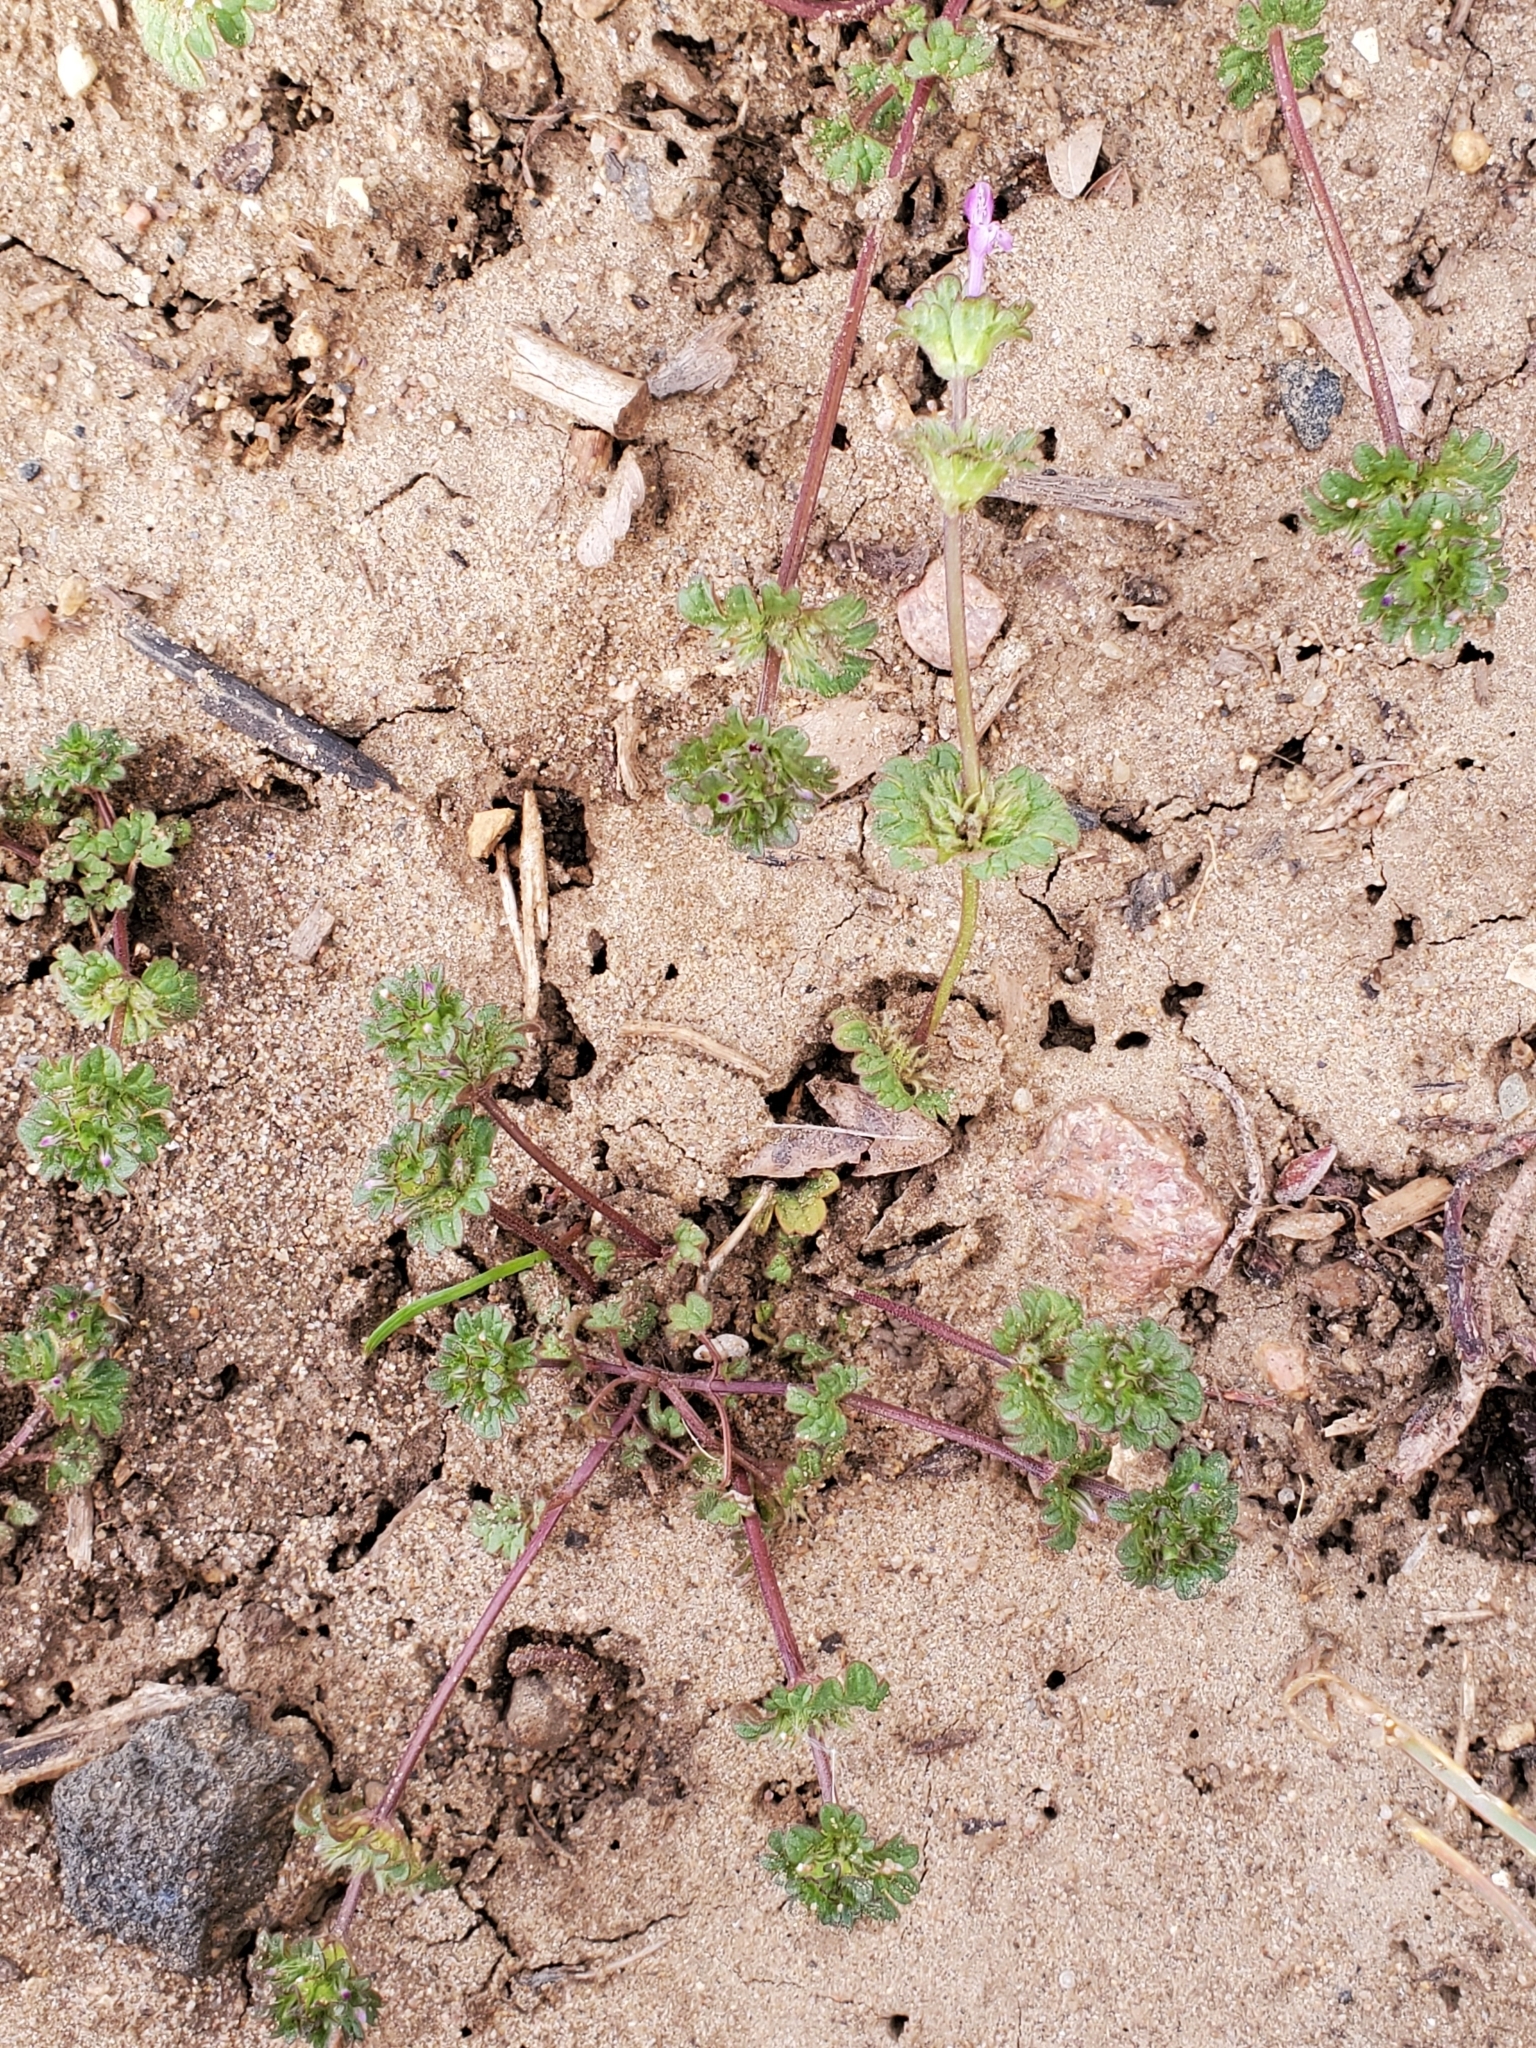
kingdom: Plantae
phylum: Tracheophyta
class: Magnoliopsida
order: Lamiales
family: Lamiaceae
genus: Lamium
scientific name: Lamium amplexicaule
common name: Henbit dead-nettle
